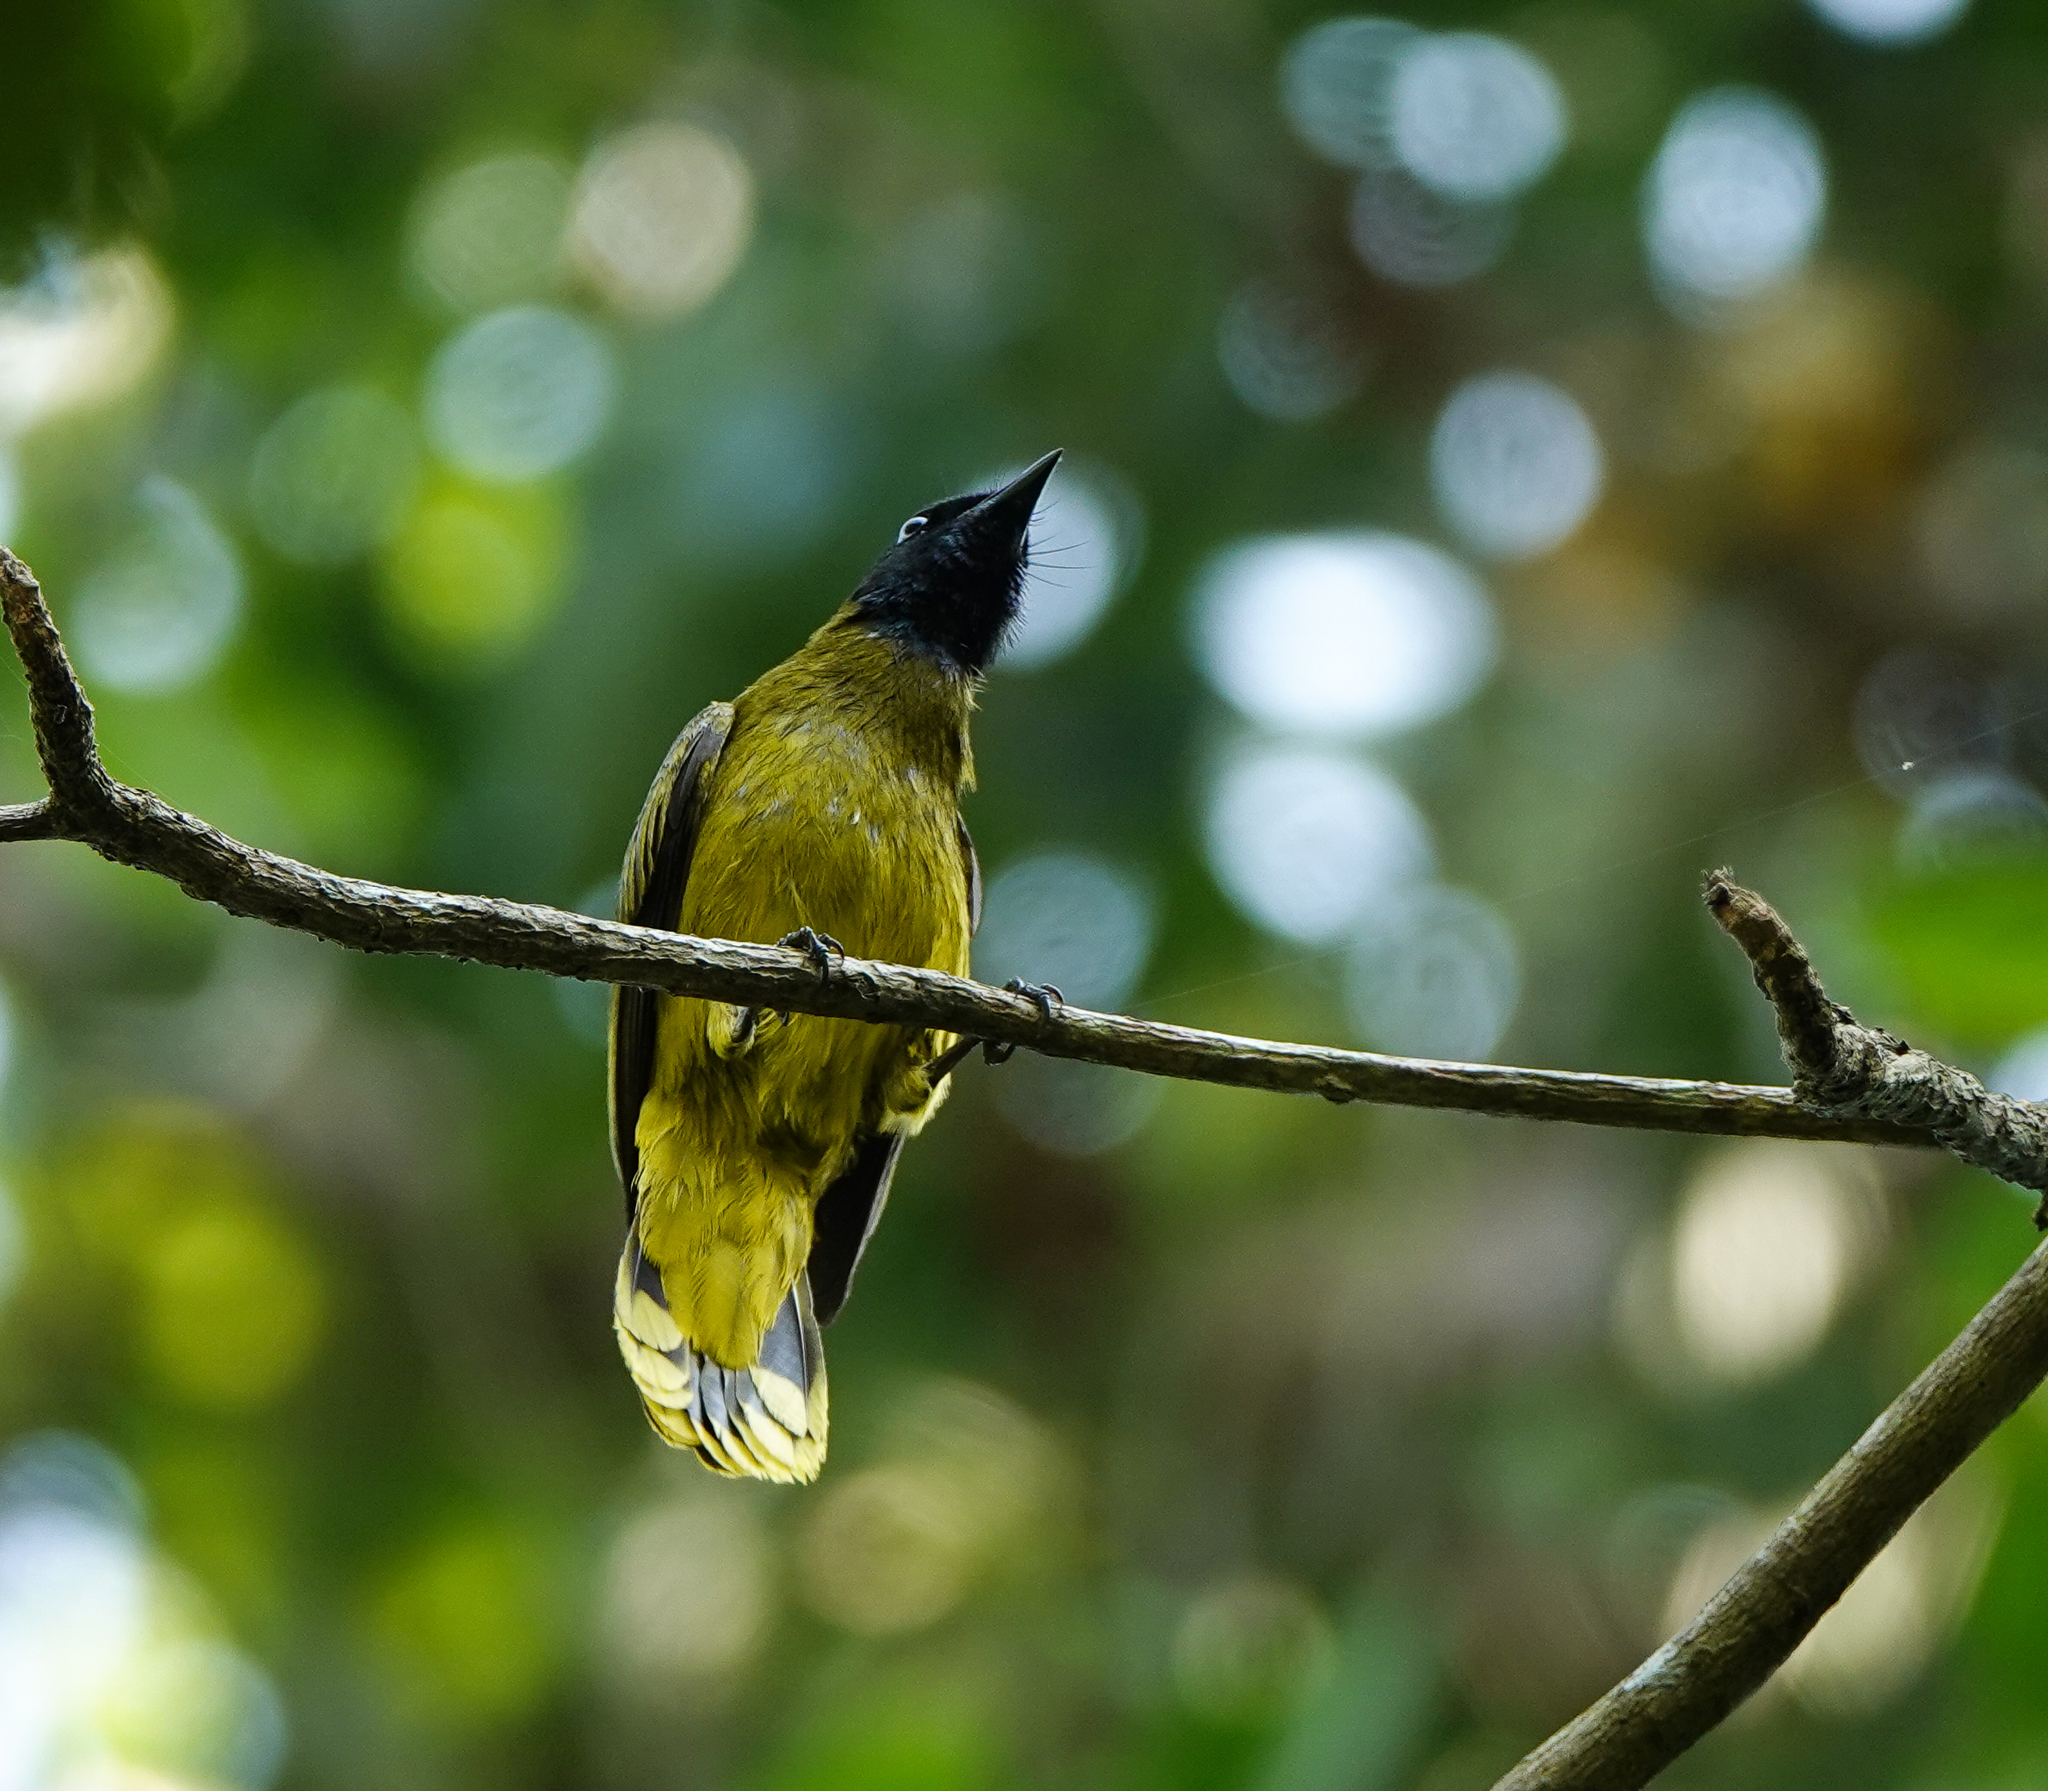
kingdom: Animalia
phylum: Chordata
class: Aves
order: Passeriformes
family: Pycnonotidae
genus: Microtarsus
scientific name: Microtarsus
